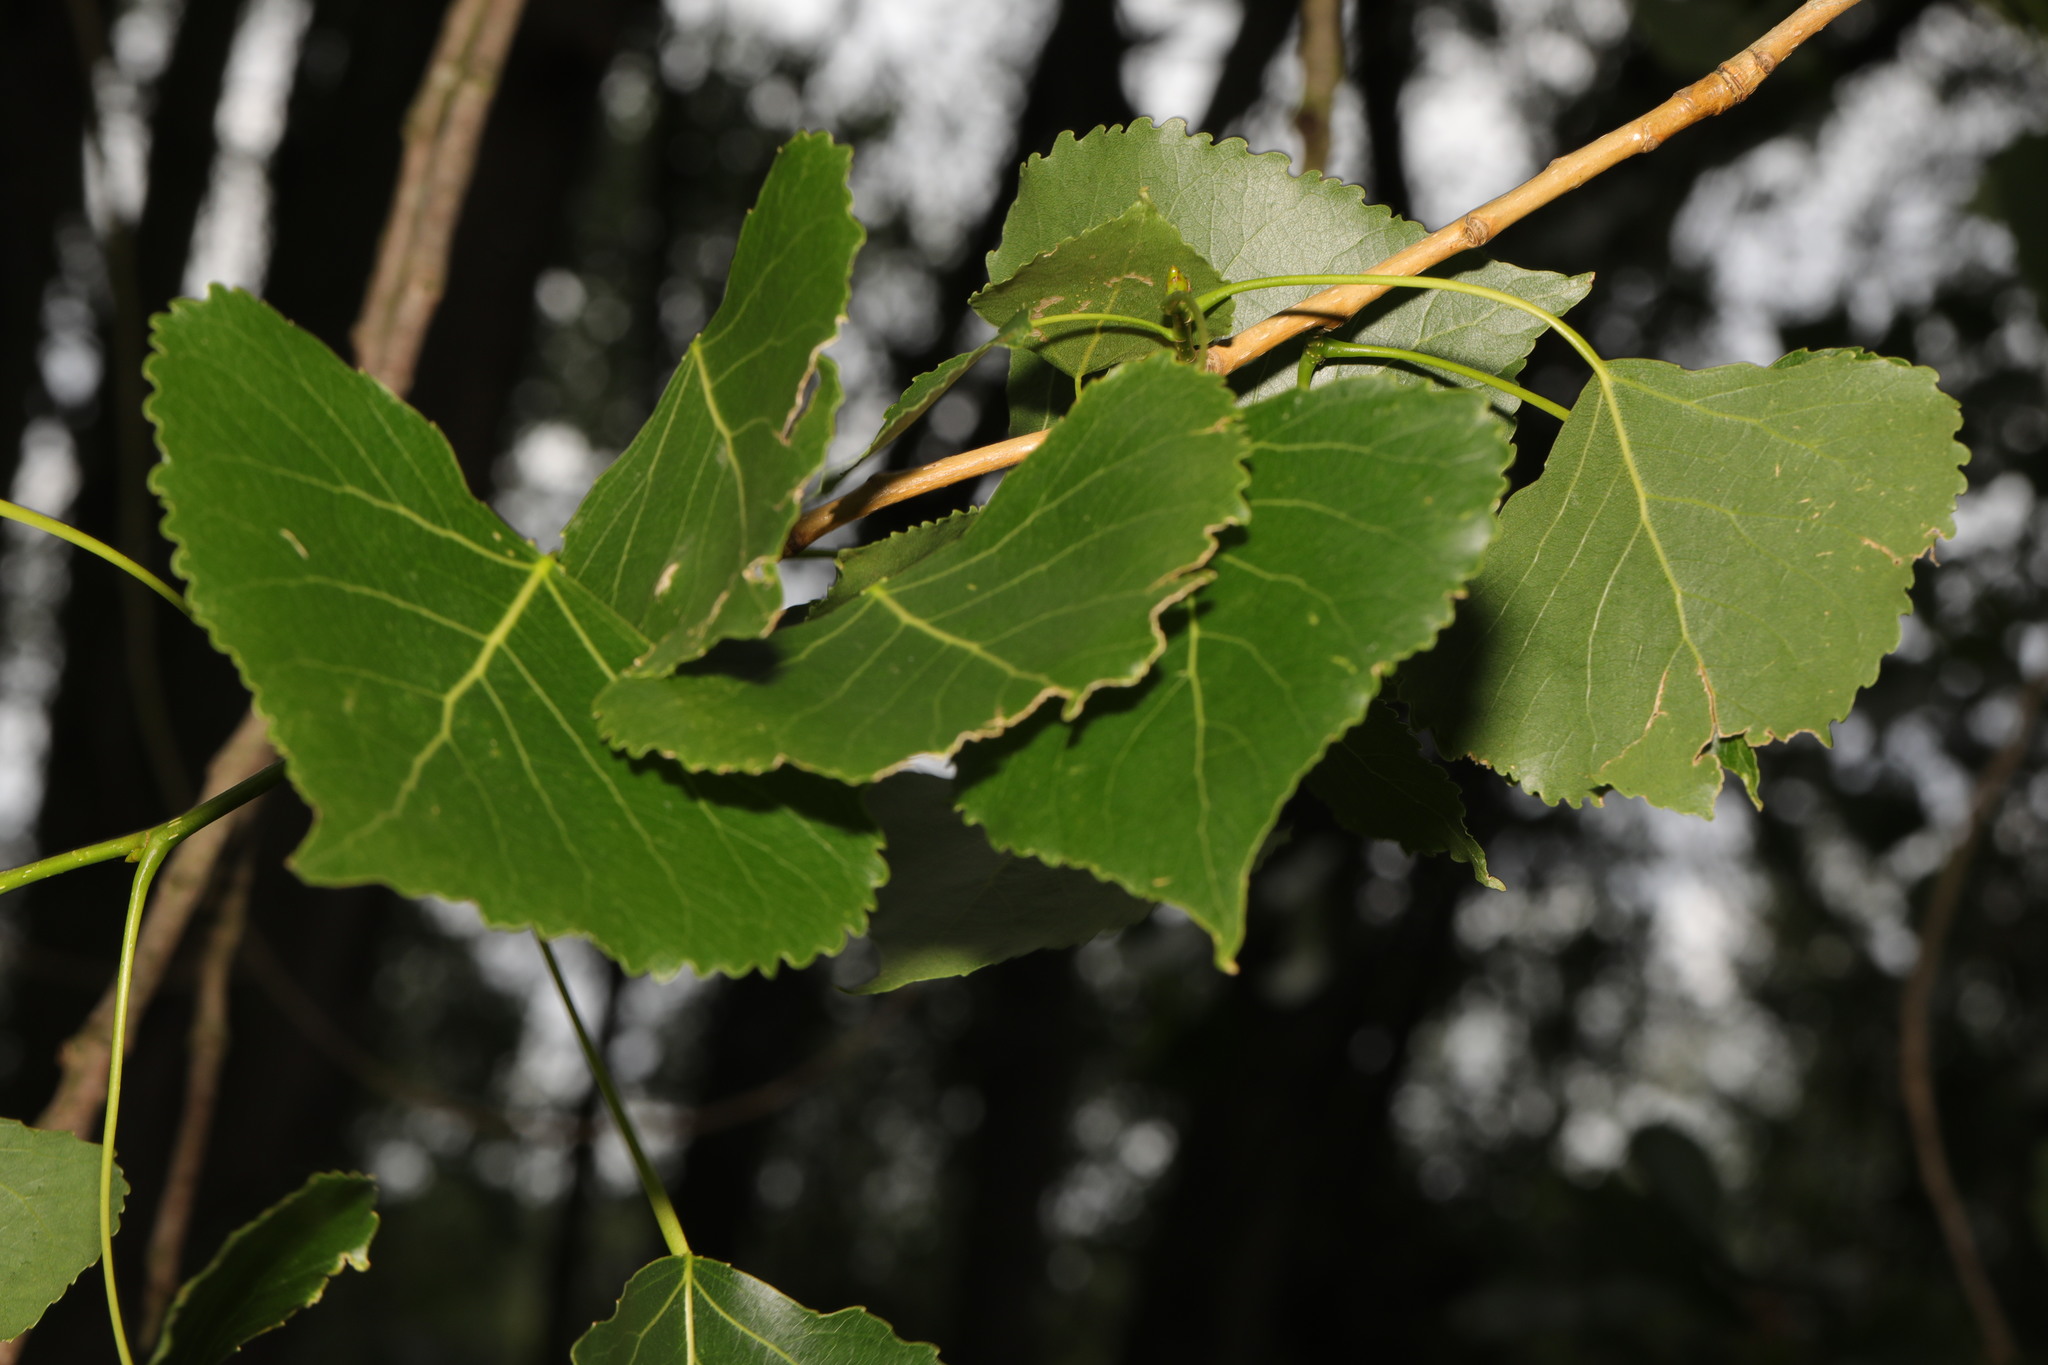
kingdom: Plantae
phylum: Tracheophyta
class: Magnoliopsida
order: Malpighiales
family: Salicaceae
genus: Populus
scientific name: Populus canadensis
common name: Carolina poplar
